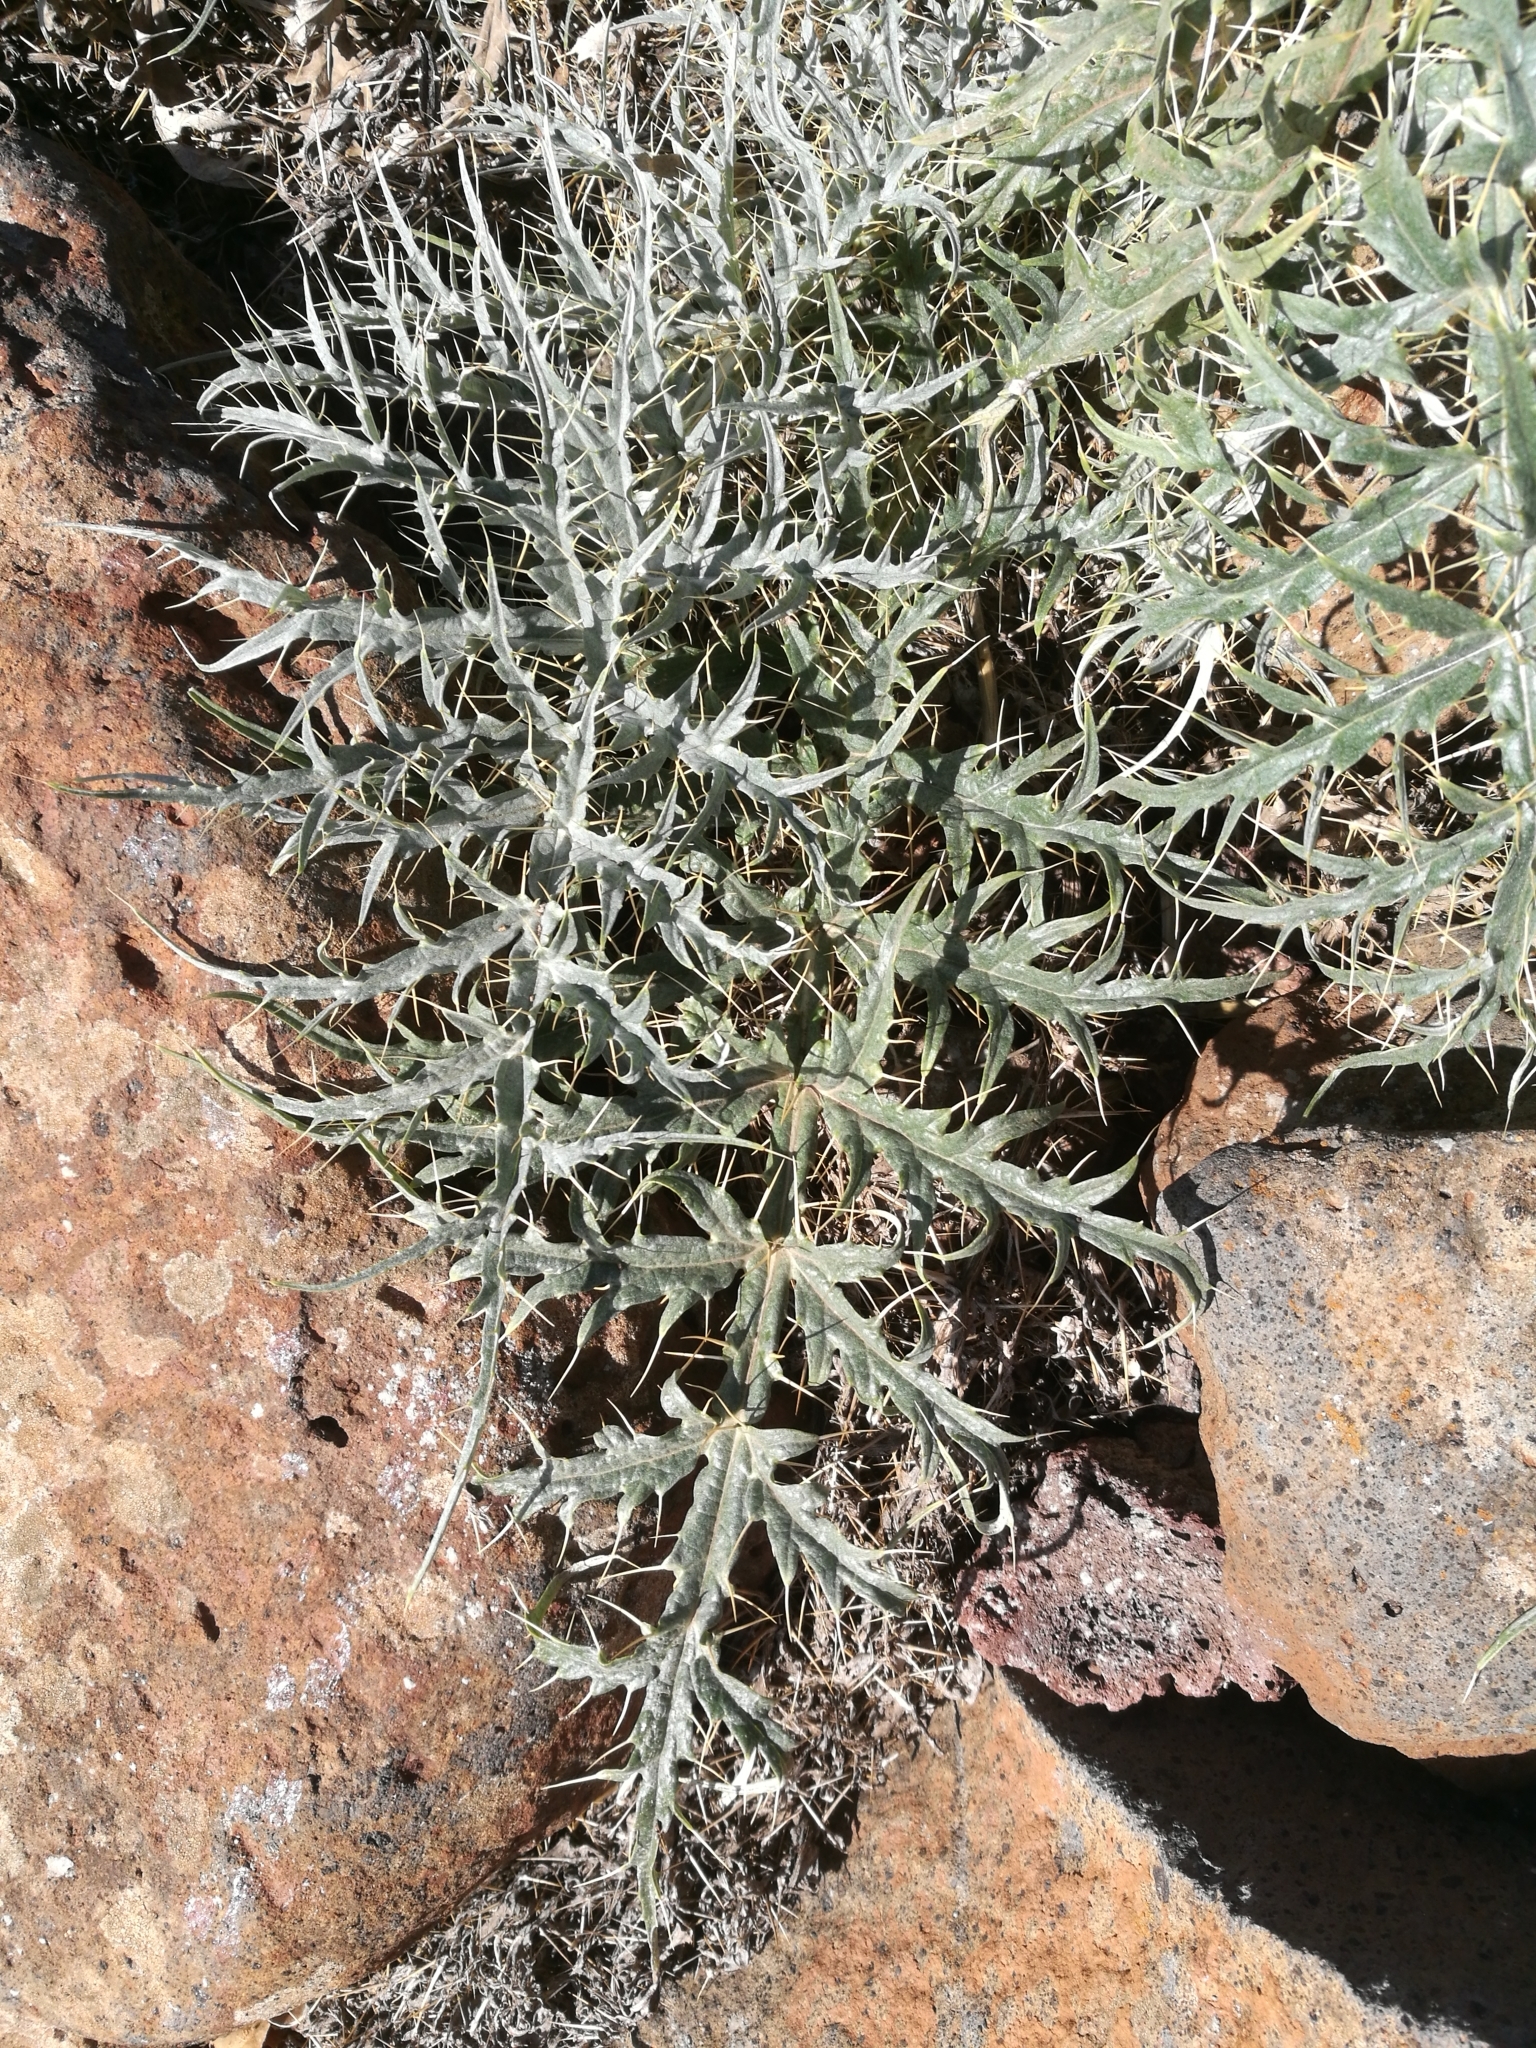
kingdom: Plantae
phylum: Tracheophyta
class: Magnoliopsida
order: Asterales
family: Asteraceae
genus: Cynara
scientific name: Cynara cardunculus
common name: Globe artichoke
